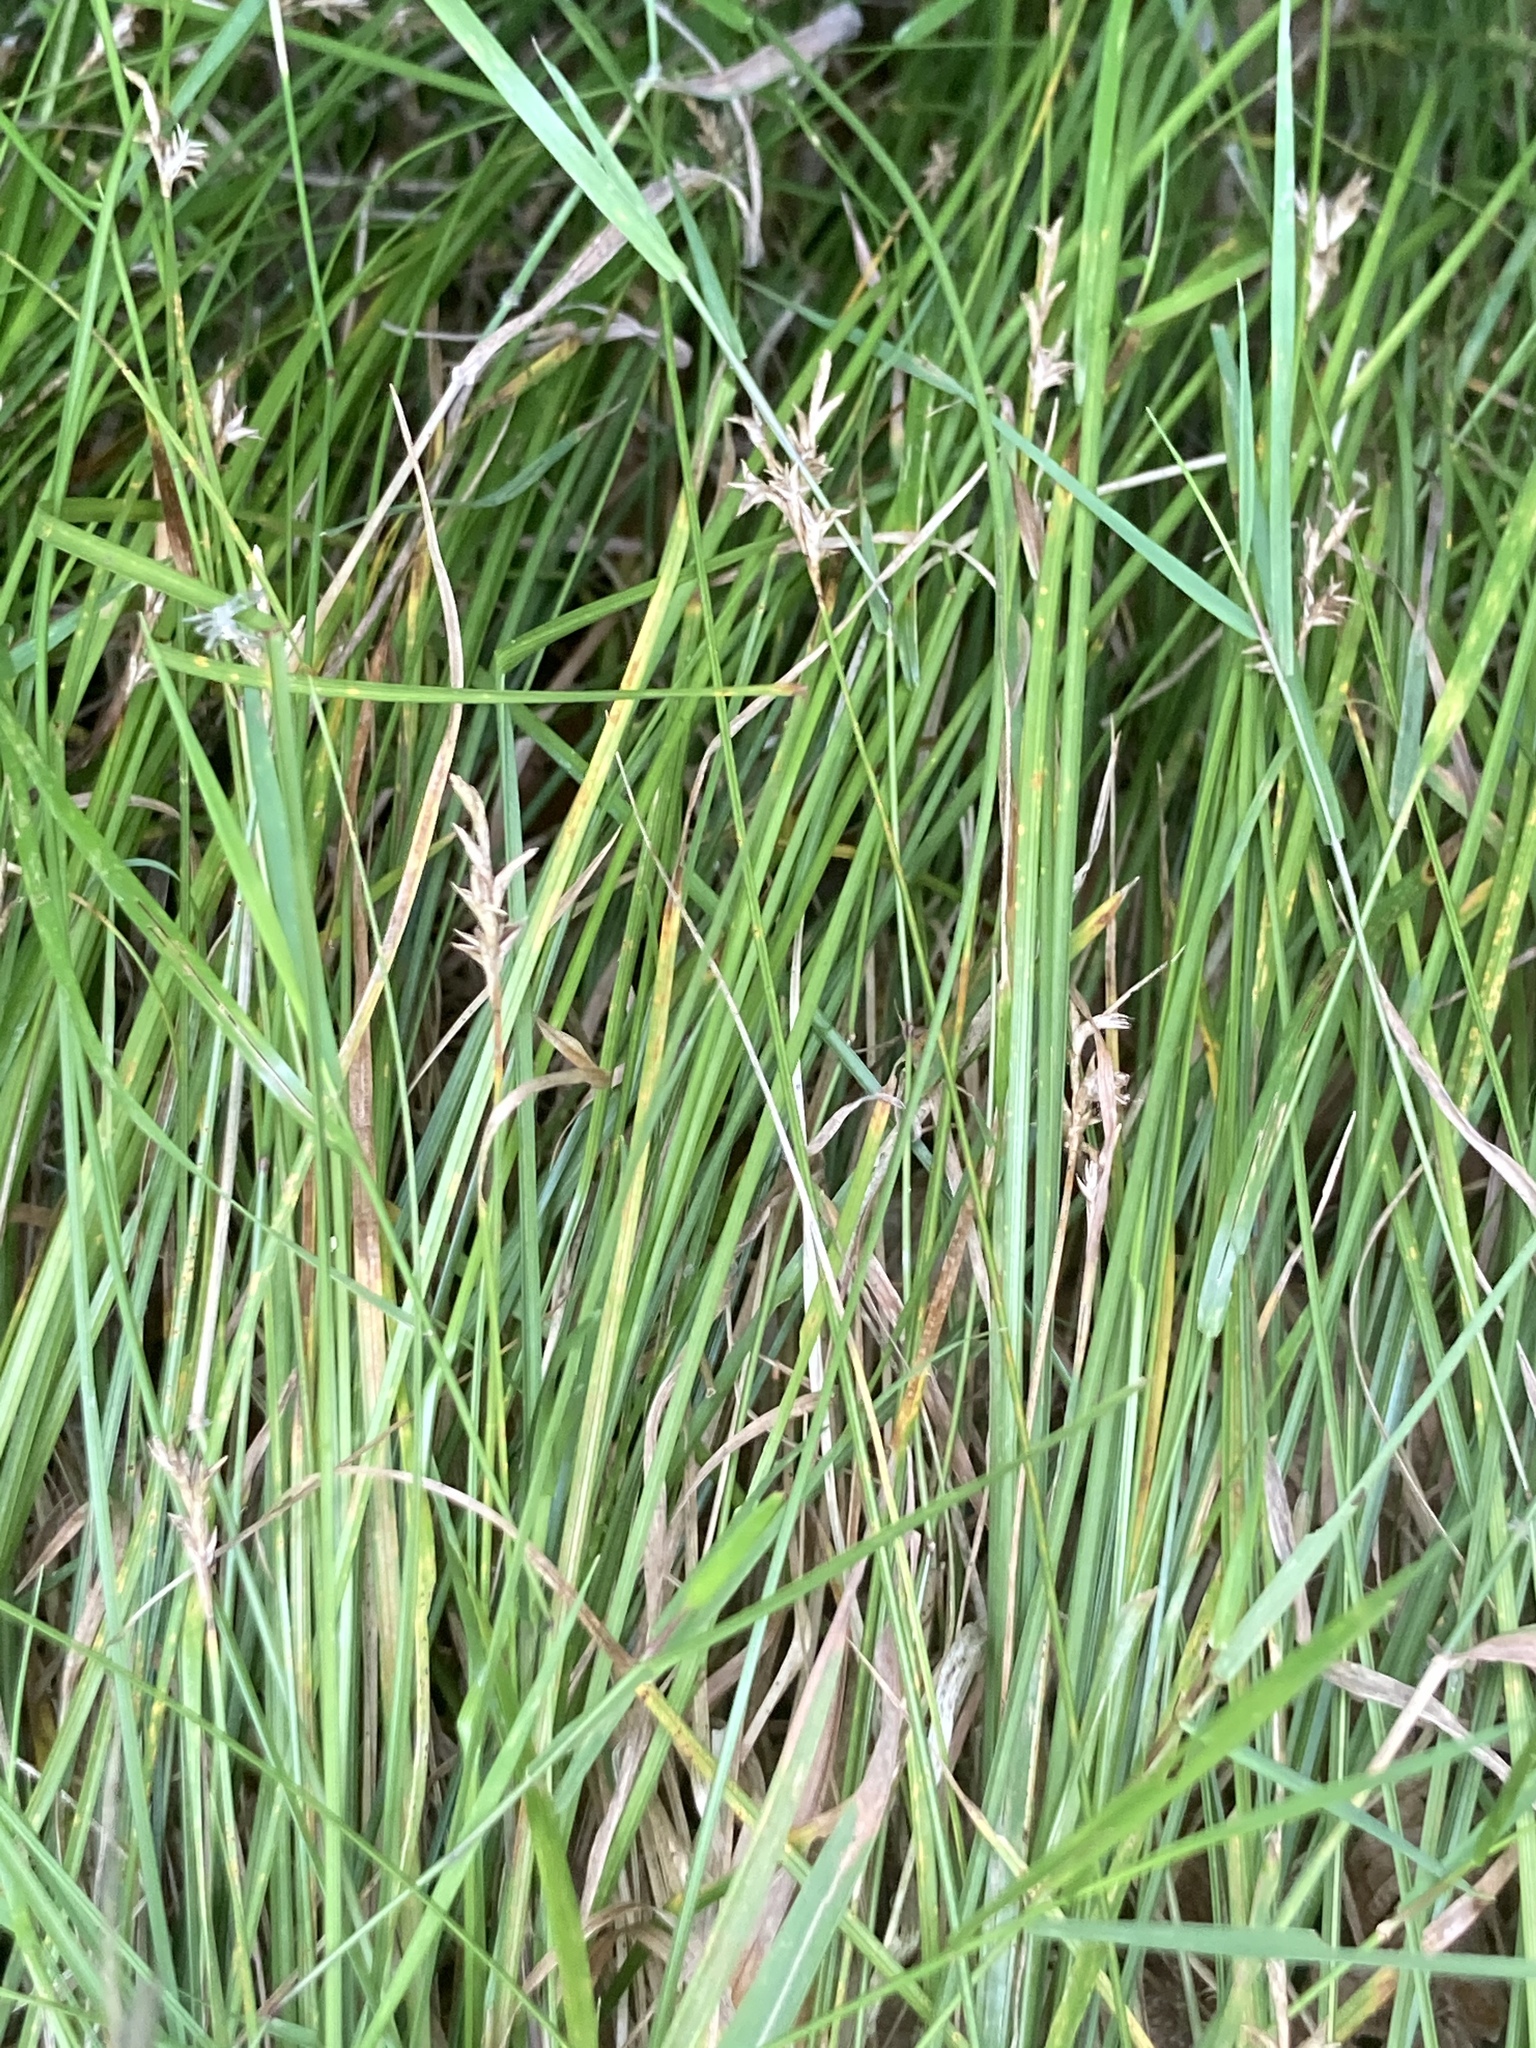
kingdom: Plantae
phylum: Tracheophyta
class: Liliopsida
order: Poales
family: Cyperaceae
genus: Carex
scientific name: Carex brizoides
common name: Quaking-grass sedge
